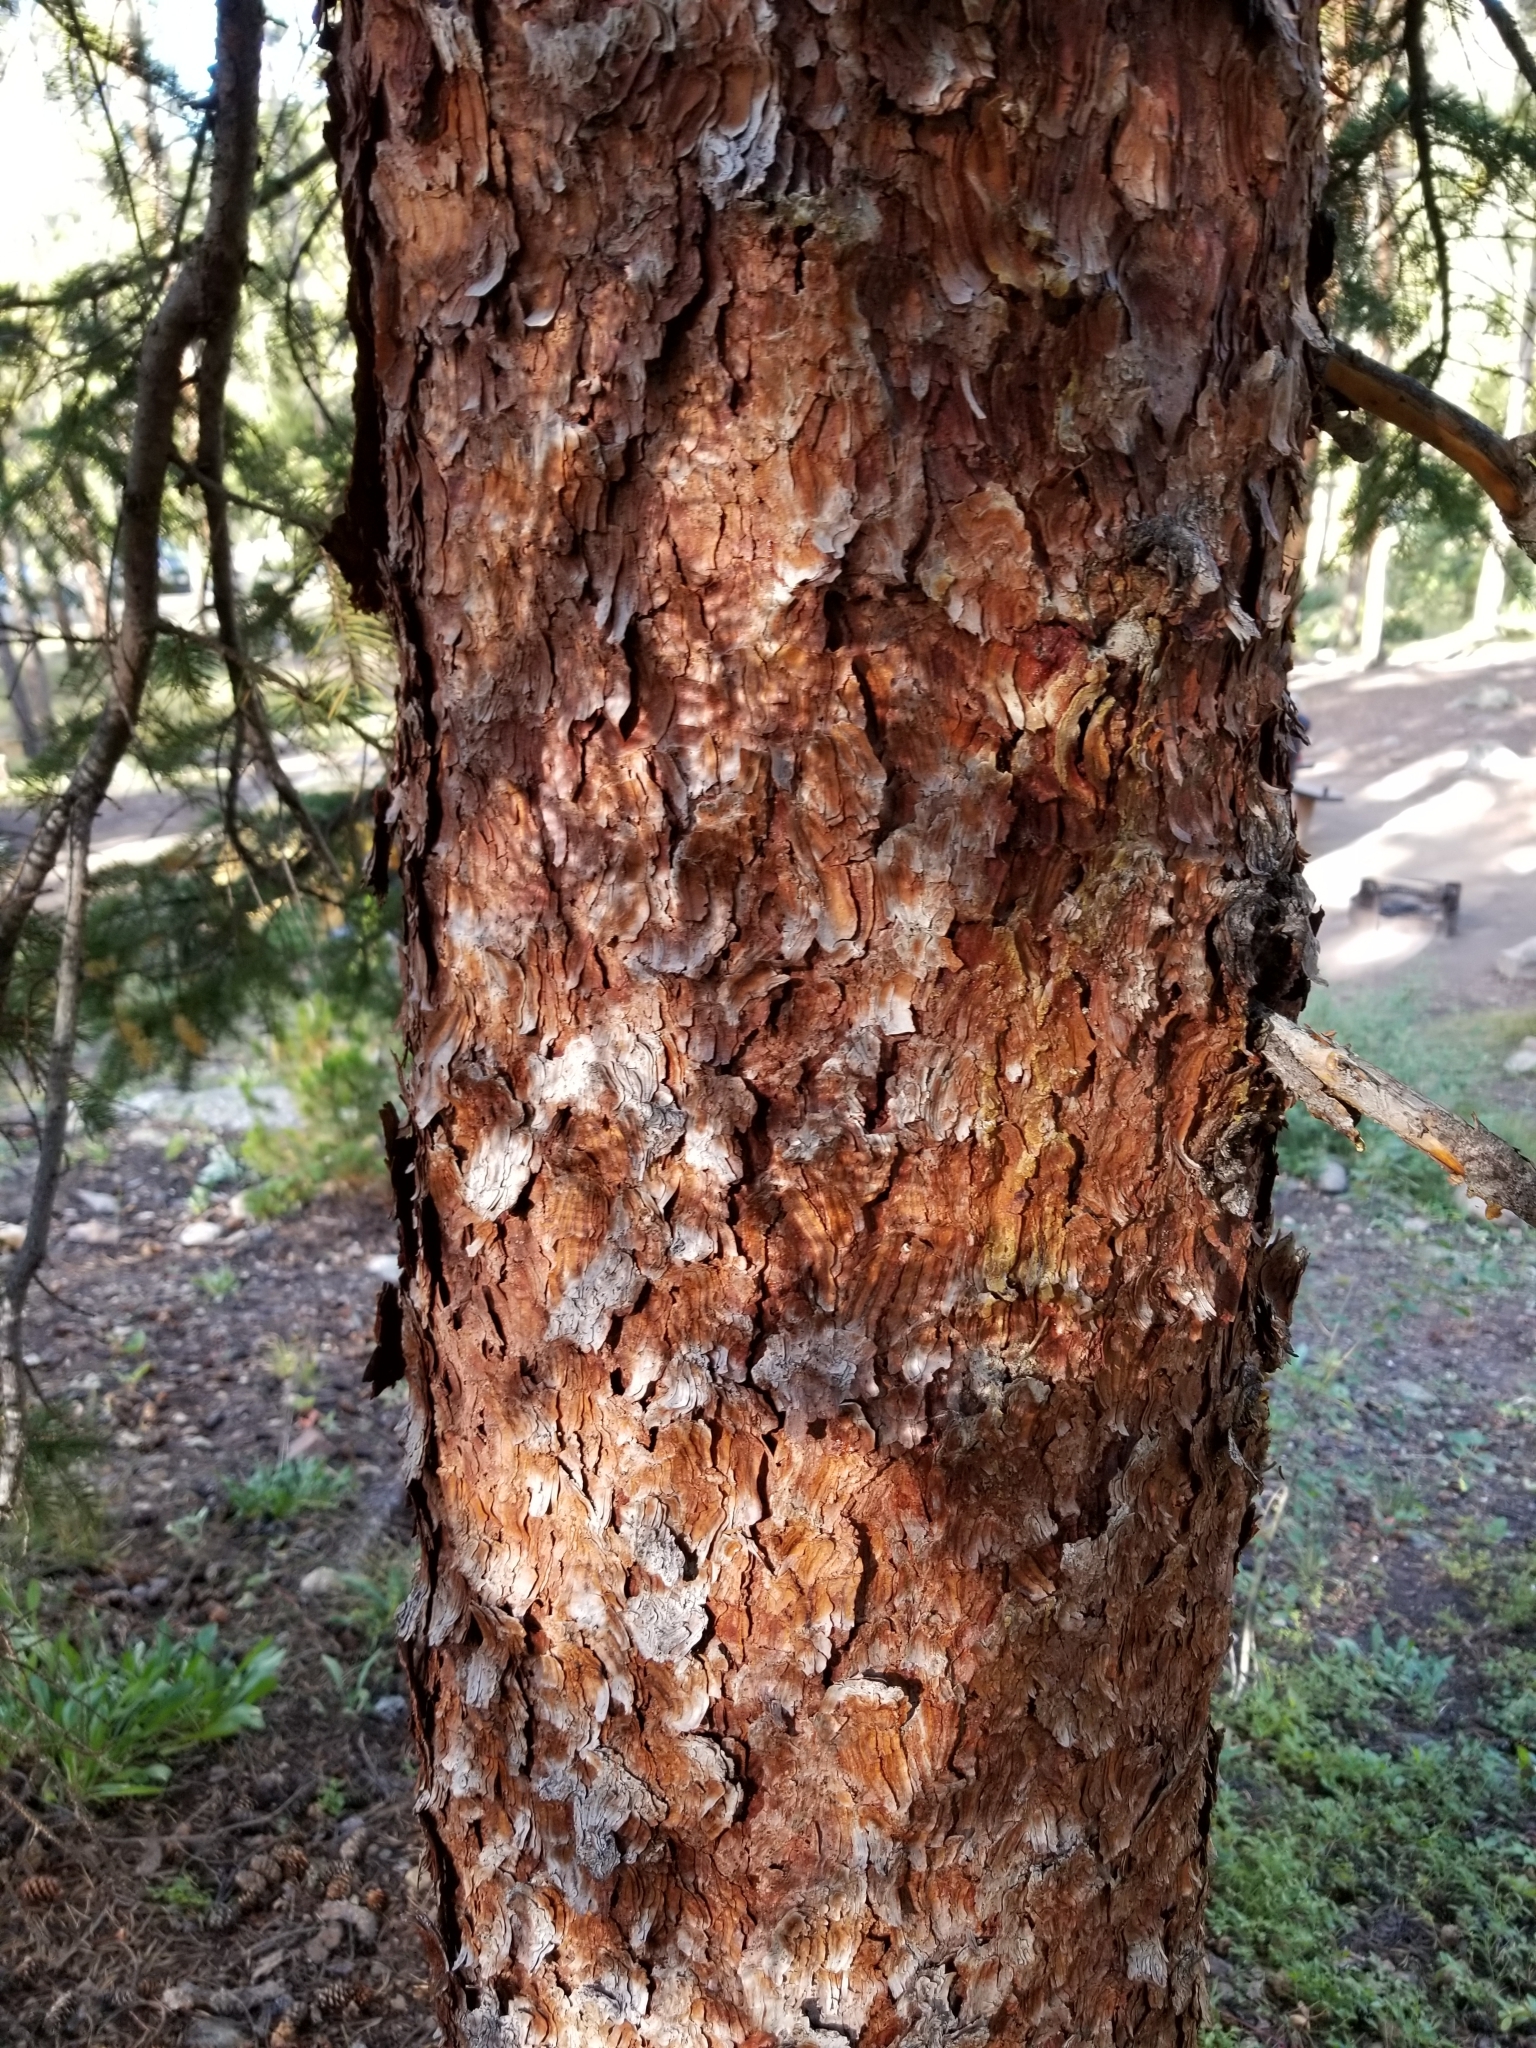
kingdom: Plantae
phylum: Tracheophyta
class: Pinopsida
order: Pinales
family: Pinaceae
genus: Picea
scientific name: Picea engelmannii
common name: Engelmann spruce
